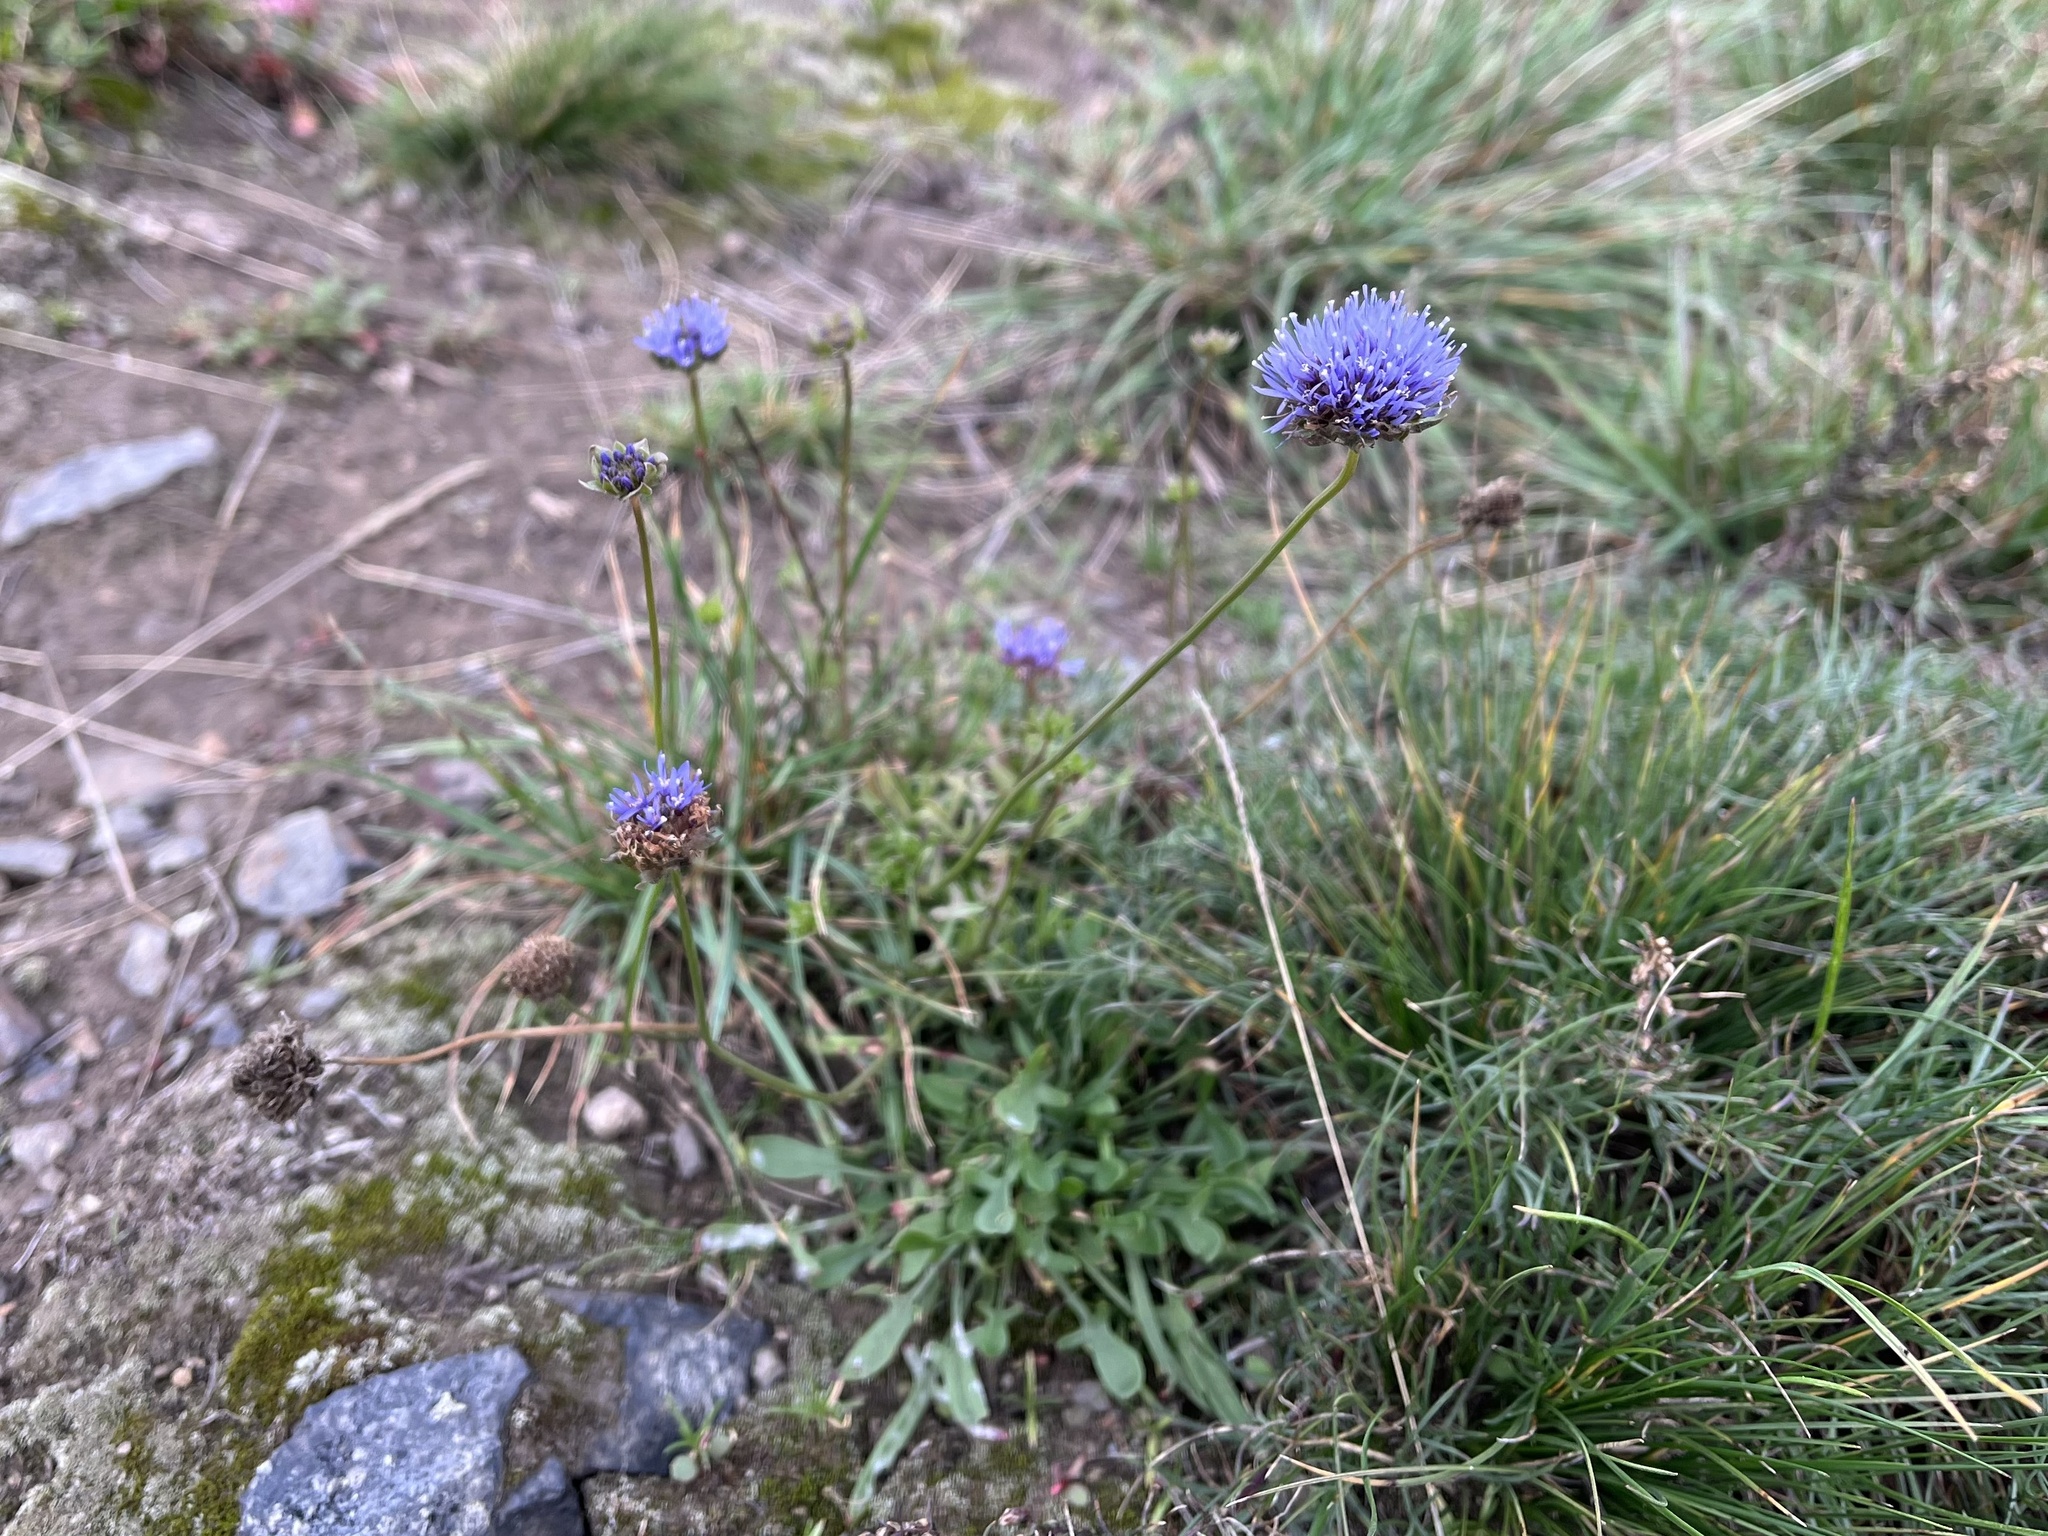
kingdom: Plantae
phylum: Tracheophyta
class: Magnoliopsida
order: Asterales
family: Campanulaceae
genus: Jasione
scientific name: Jasione montana
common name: Sheep's-bit
